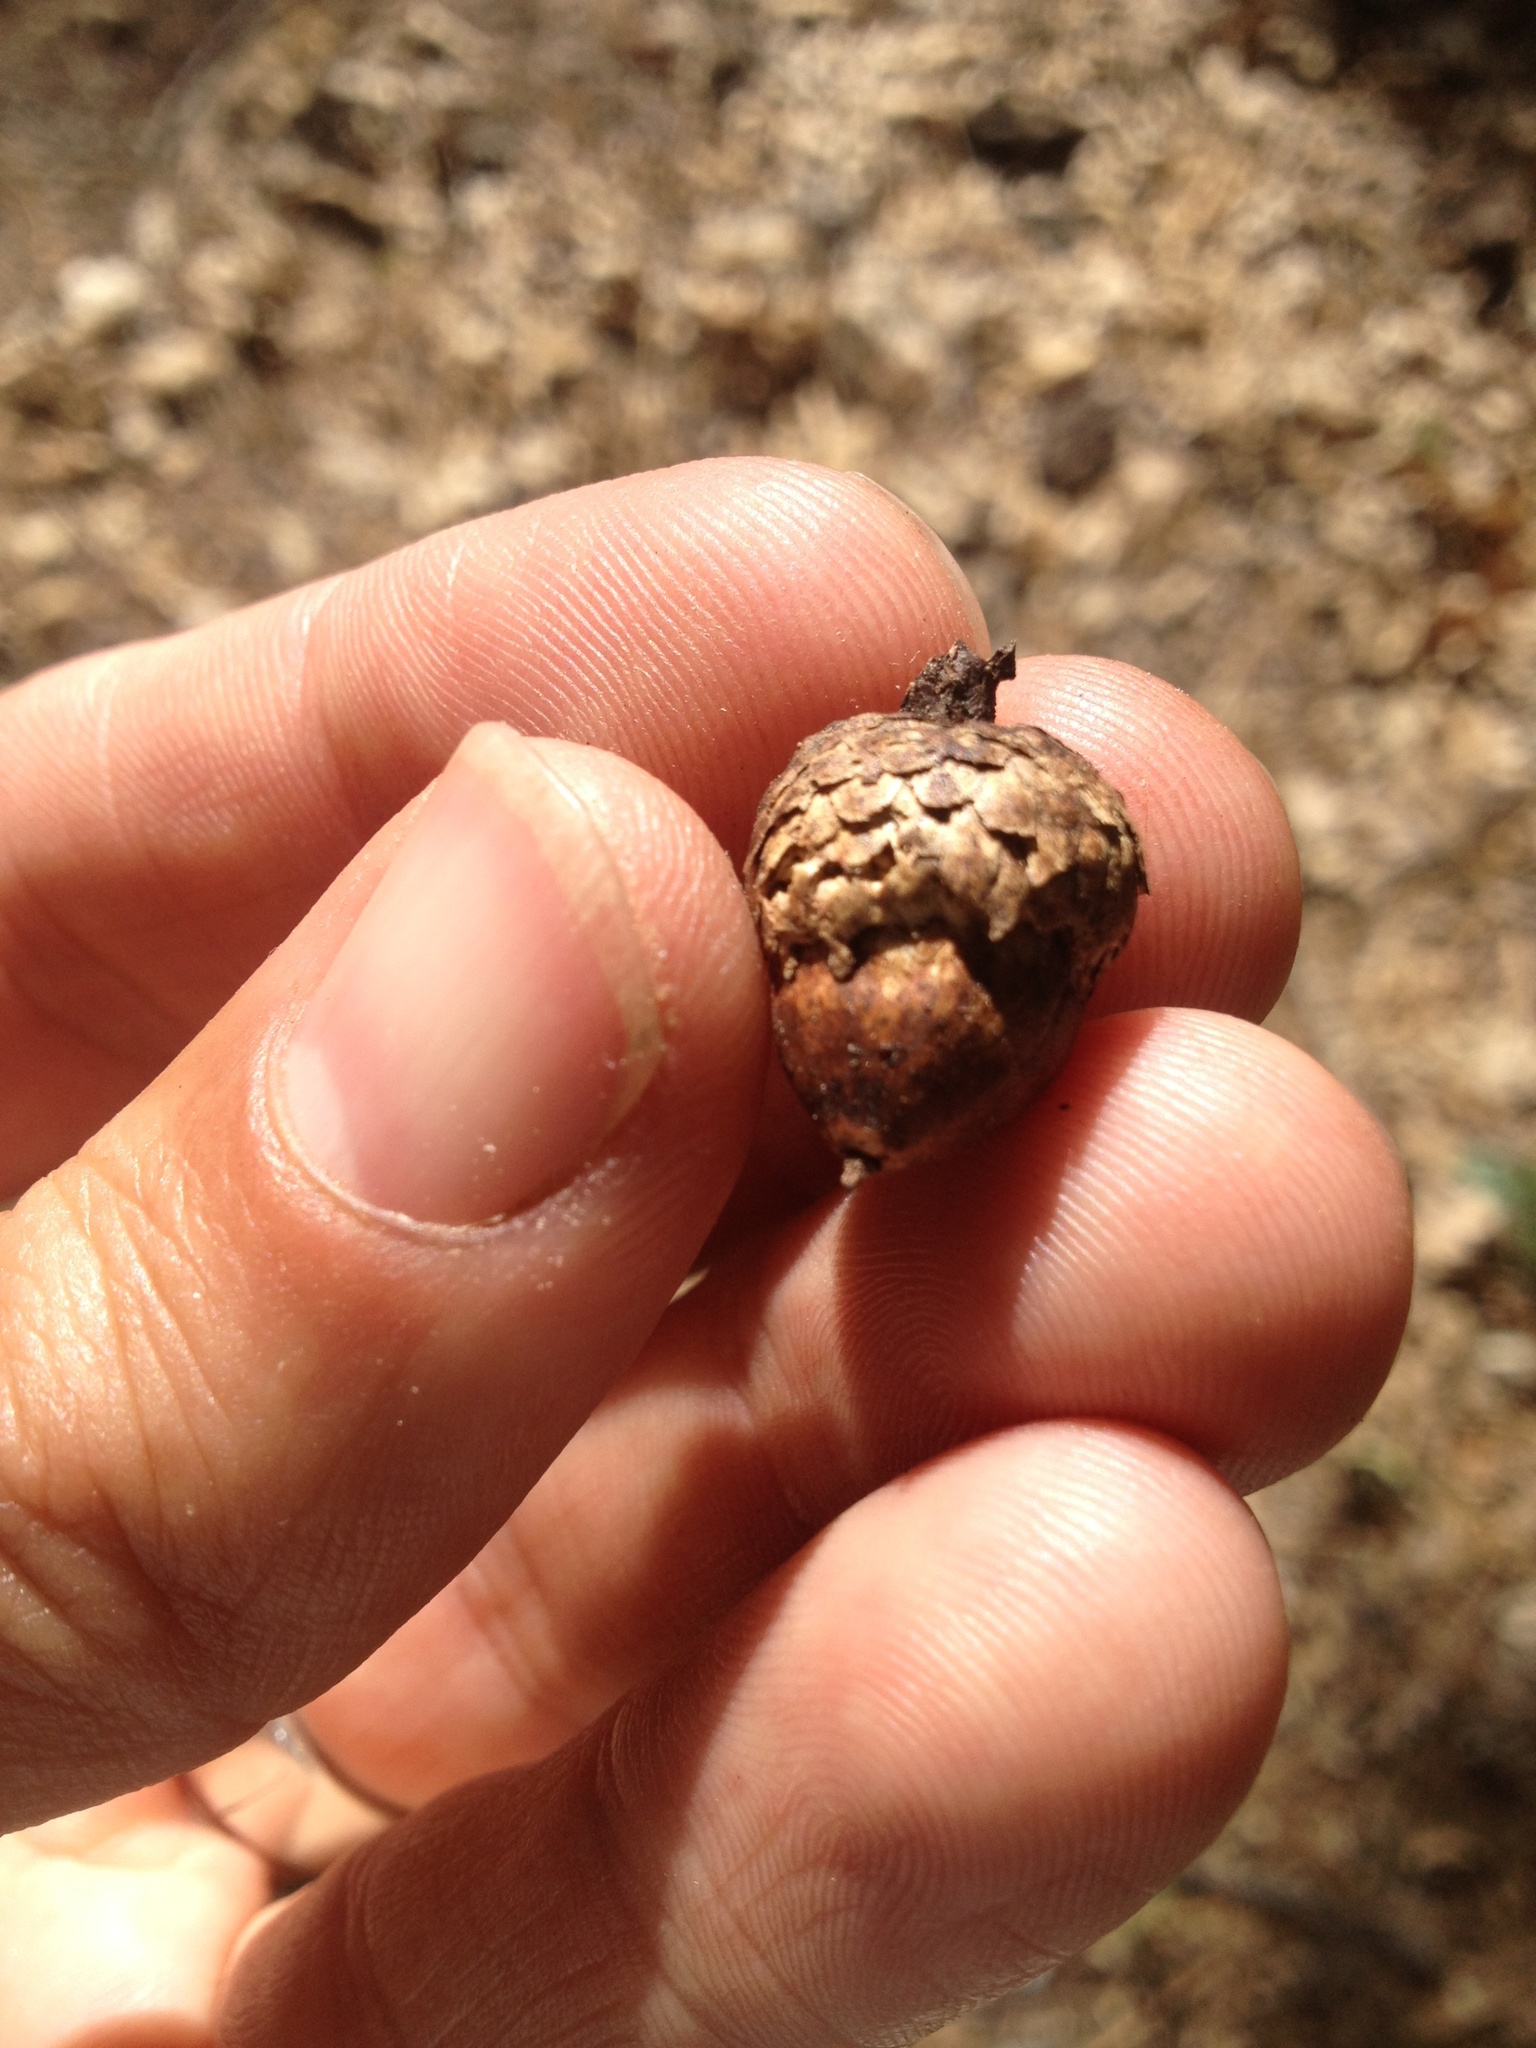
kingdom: Plantae
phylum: Tracheophyta
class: Magnoliopsida
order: Fagales
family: Fagaceae
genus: Quercus
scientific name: Quercus kelloggii
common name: California black oak
